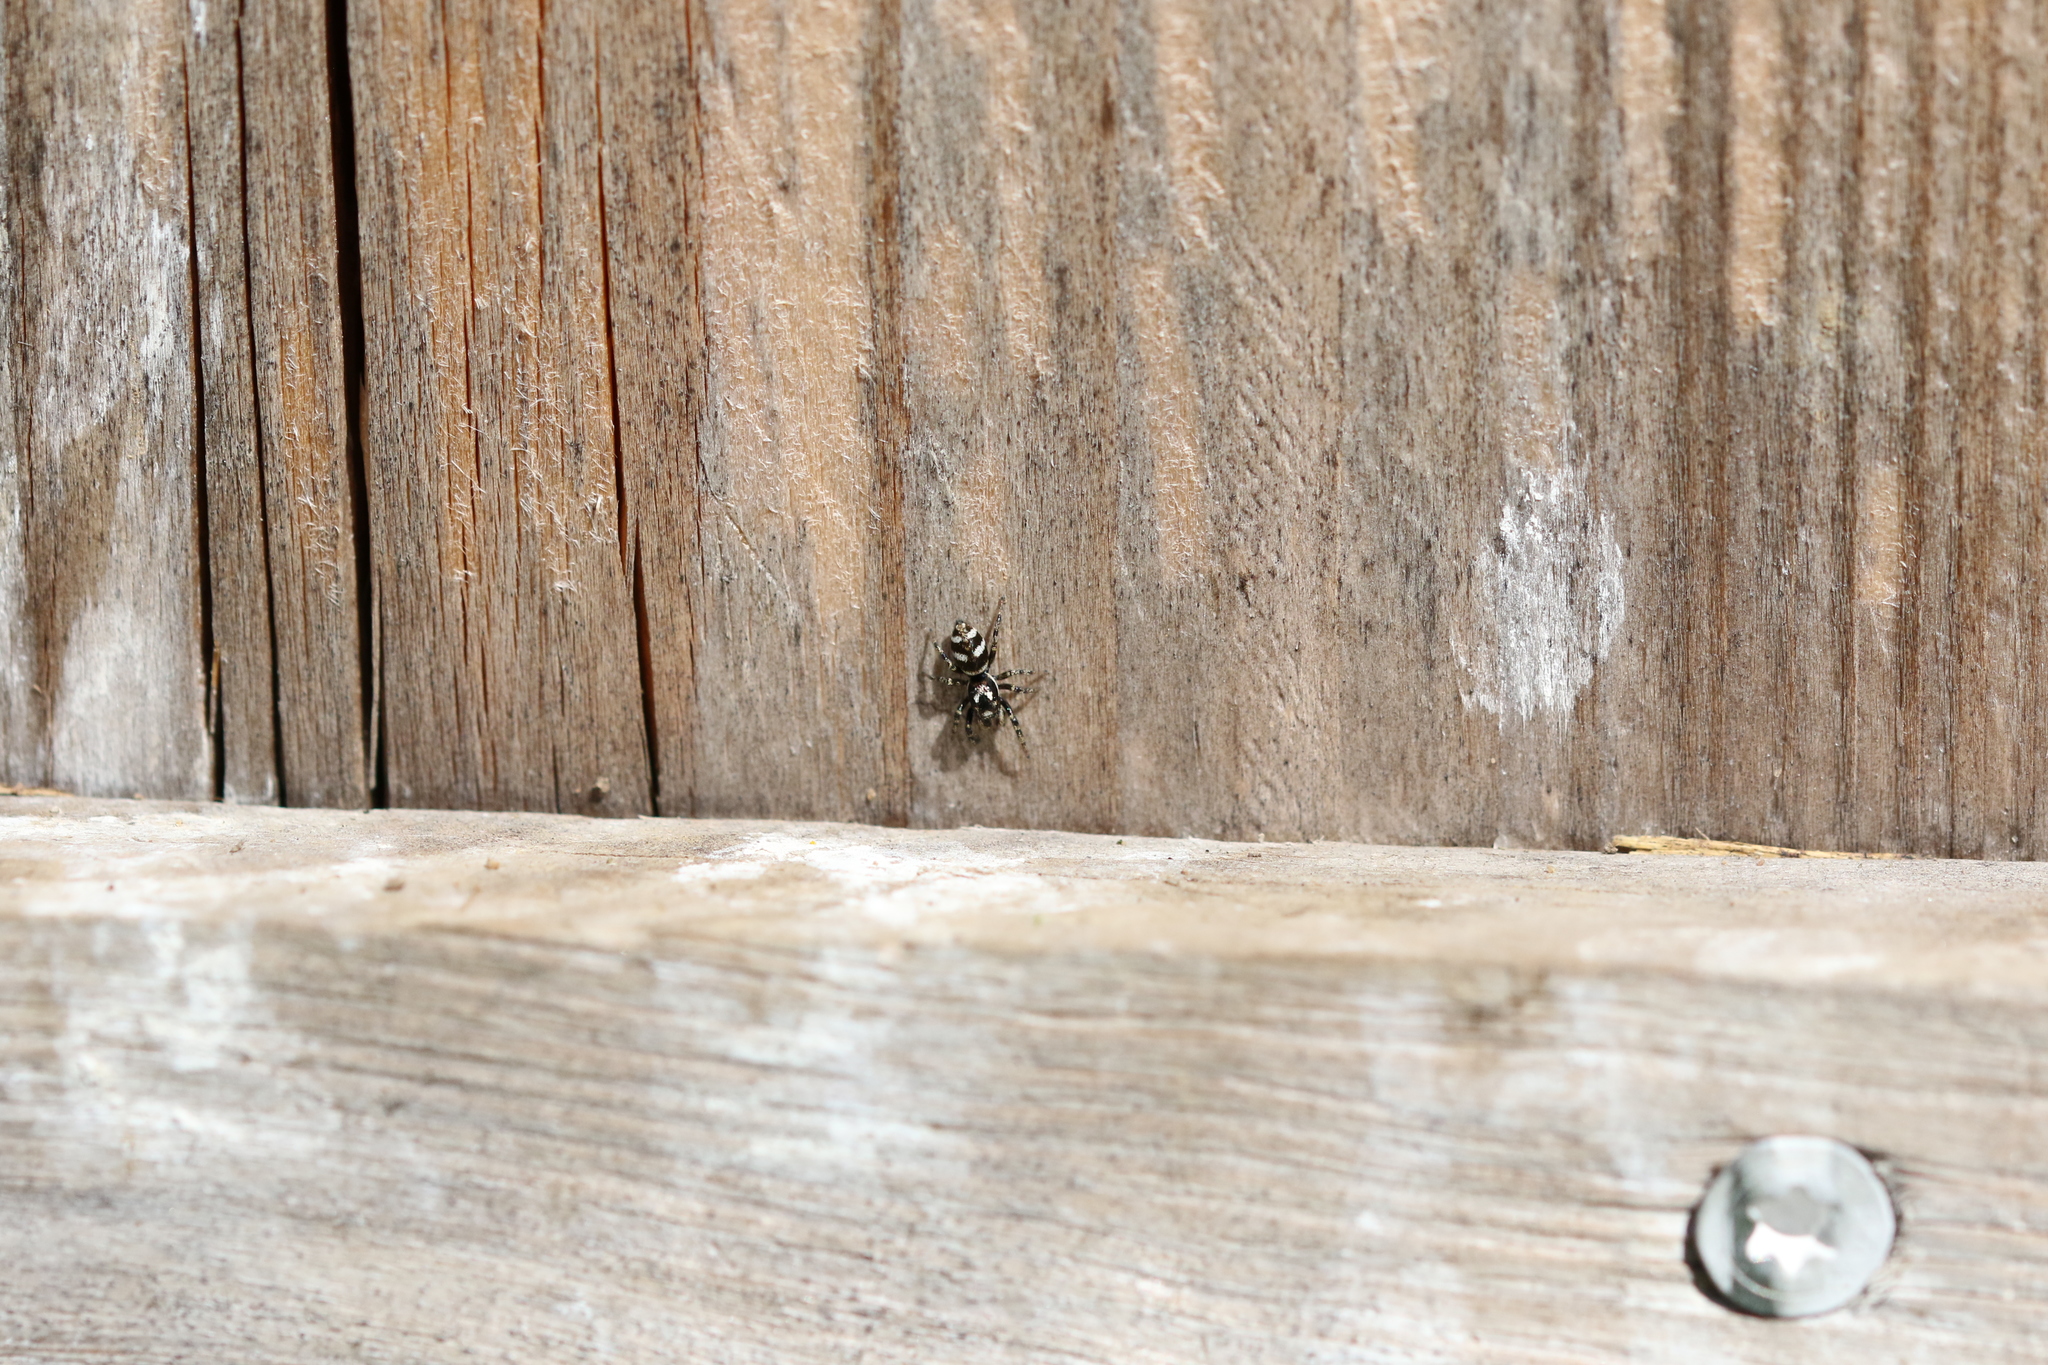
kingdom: Animalia
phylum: Arthropoda
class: Arachnida
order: Araneae
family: Salticidae
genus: Salticus
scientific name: Salticus scenicus
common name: Zebra jumper
